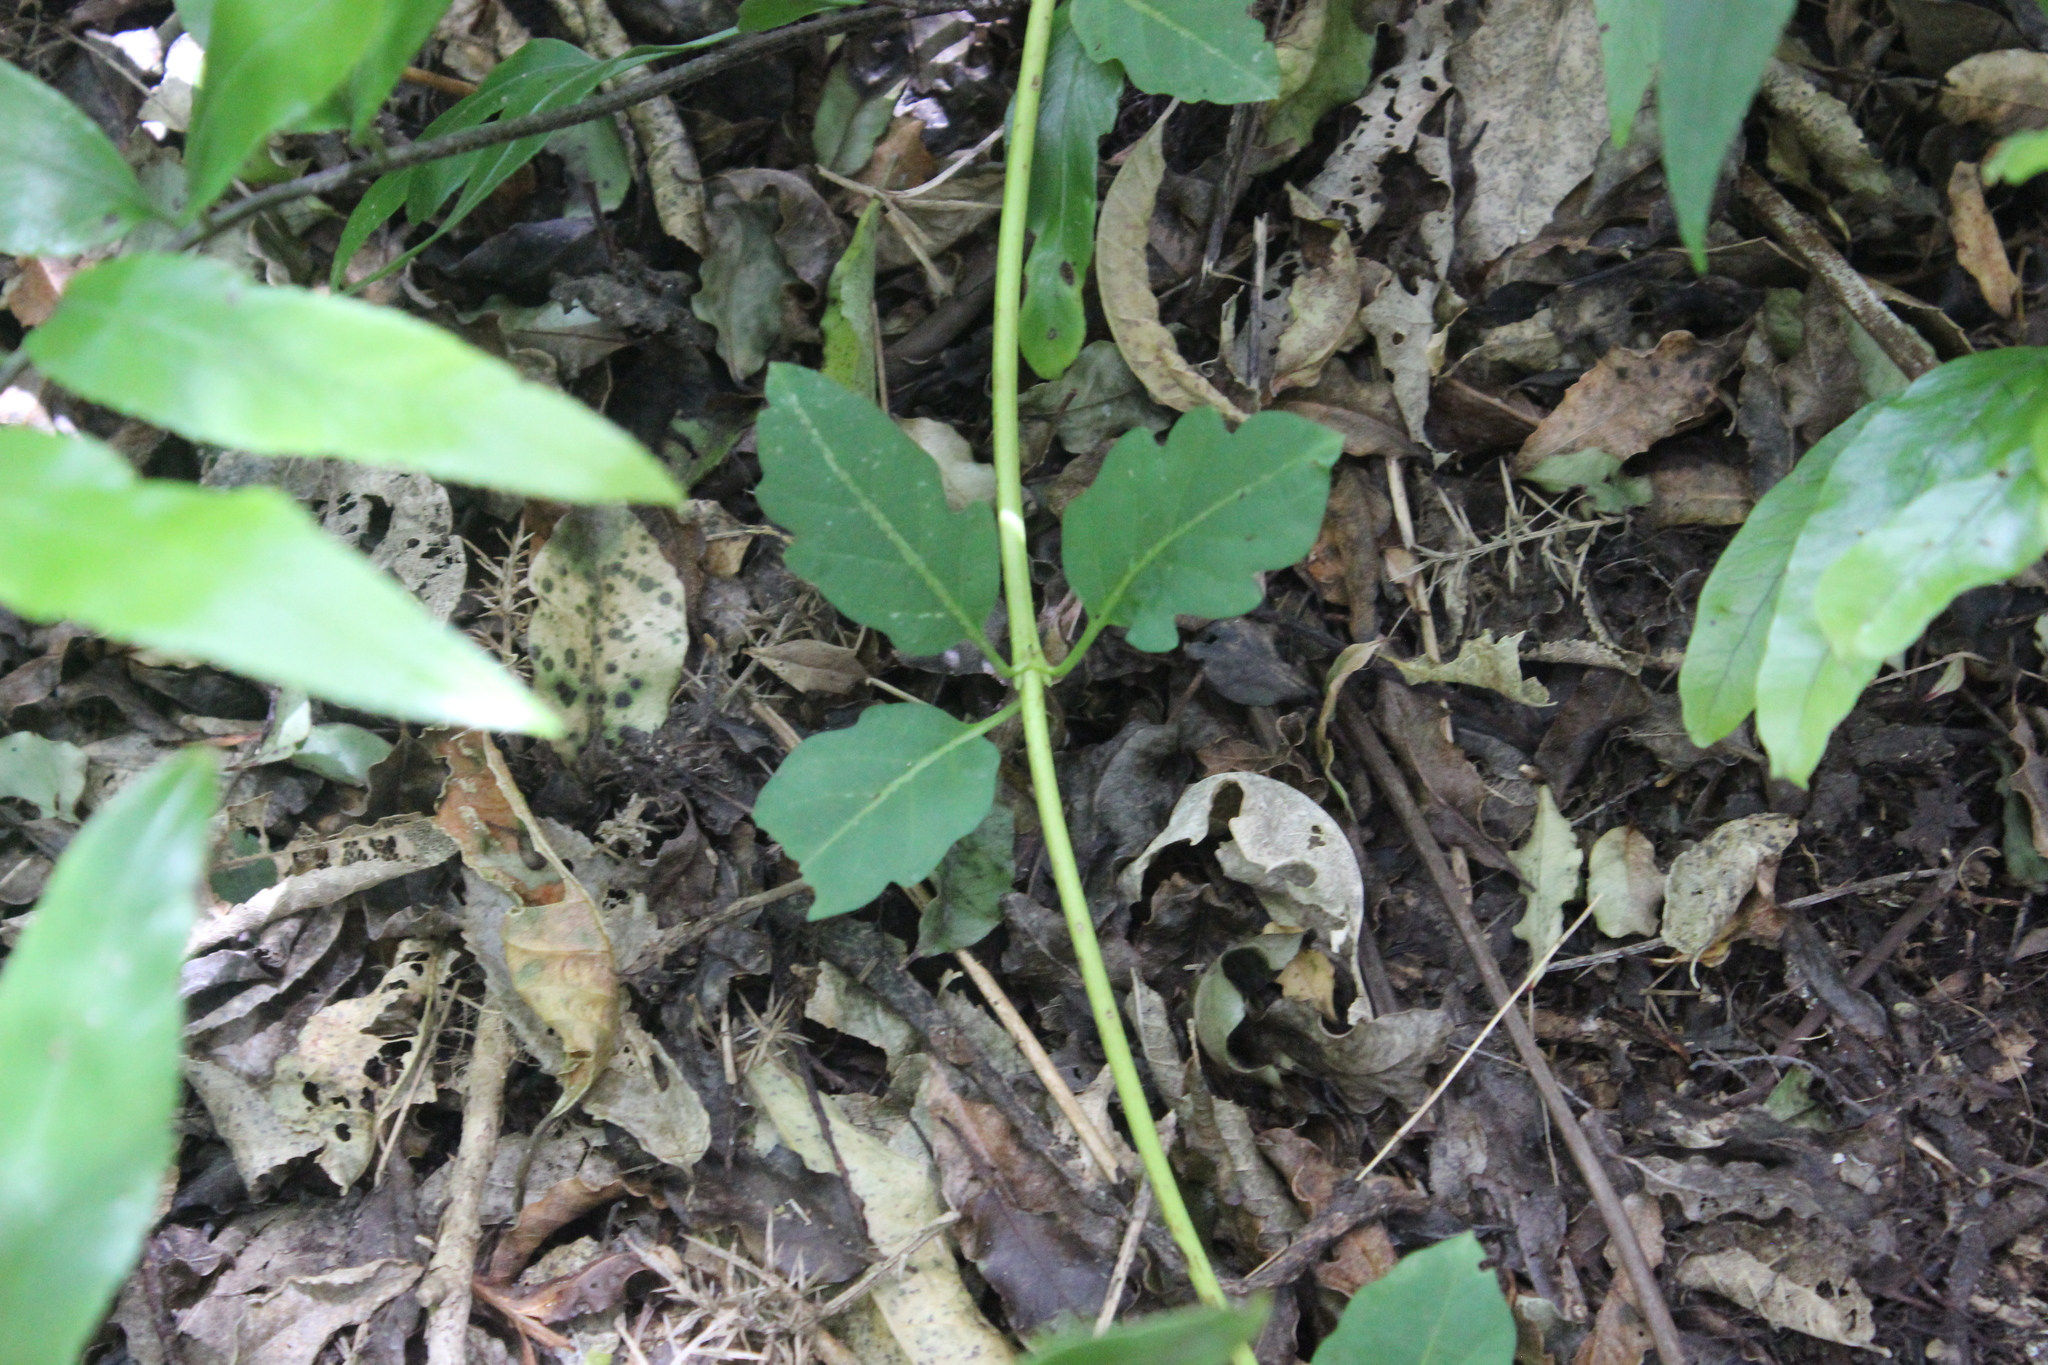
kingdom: Plantae
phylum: Tracheophyta
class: Magnoliopsida
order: Dipsacales
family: Caprifoliaceae
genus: Lonicera
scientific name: Lonicera japonica
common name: Japanese honeysuckle
